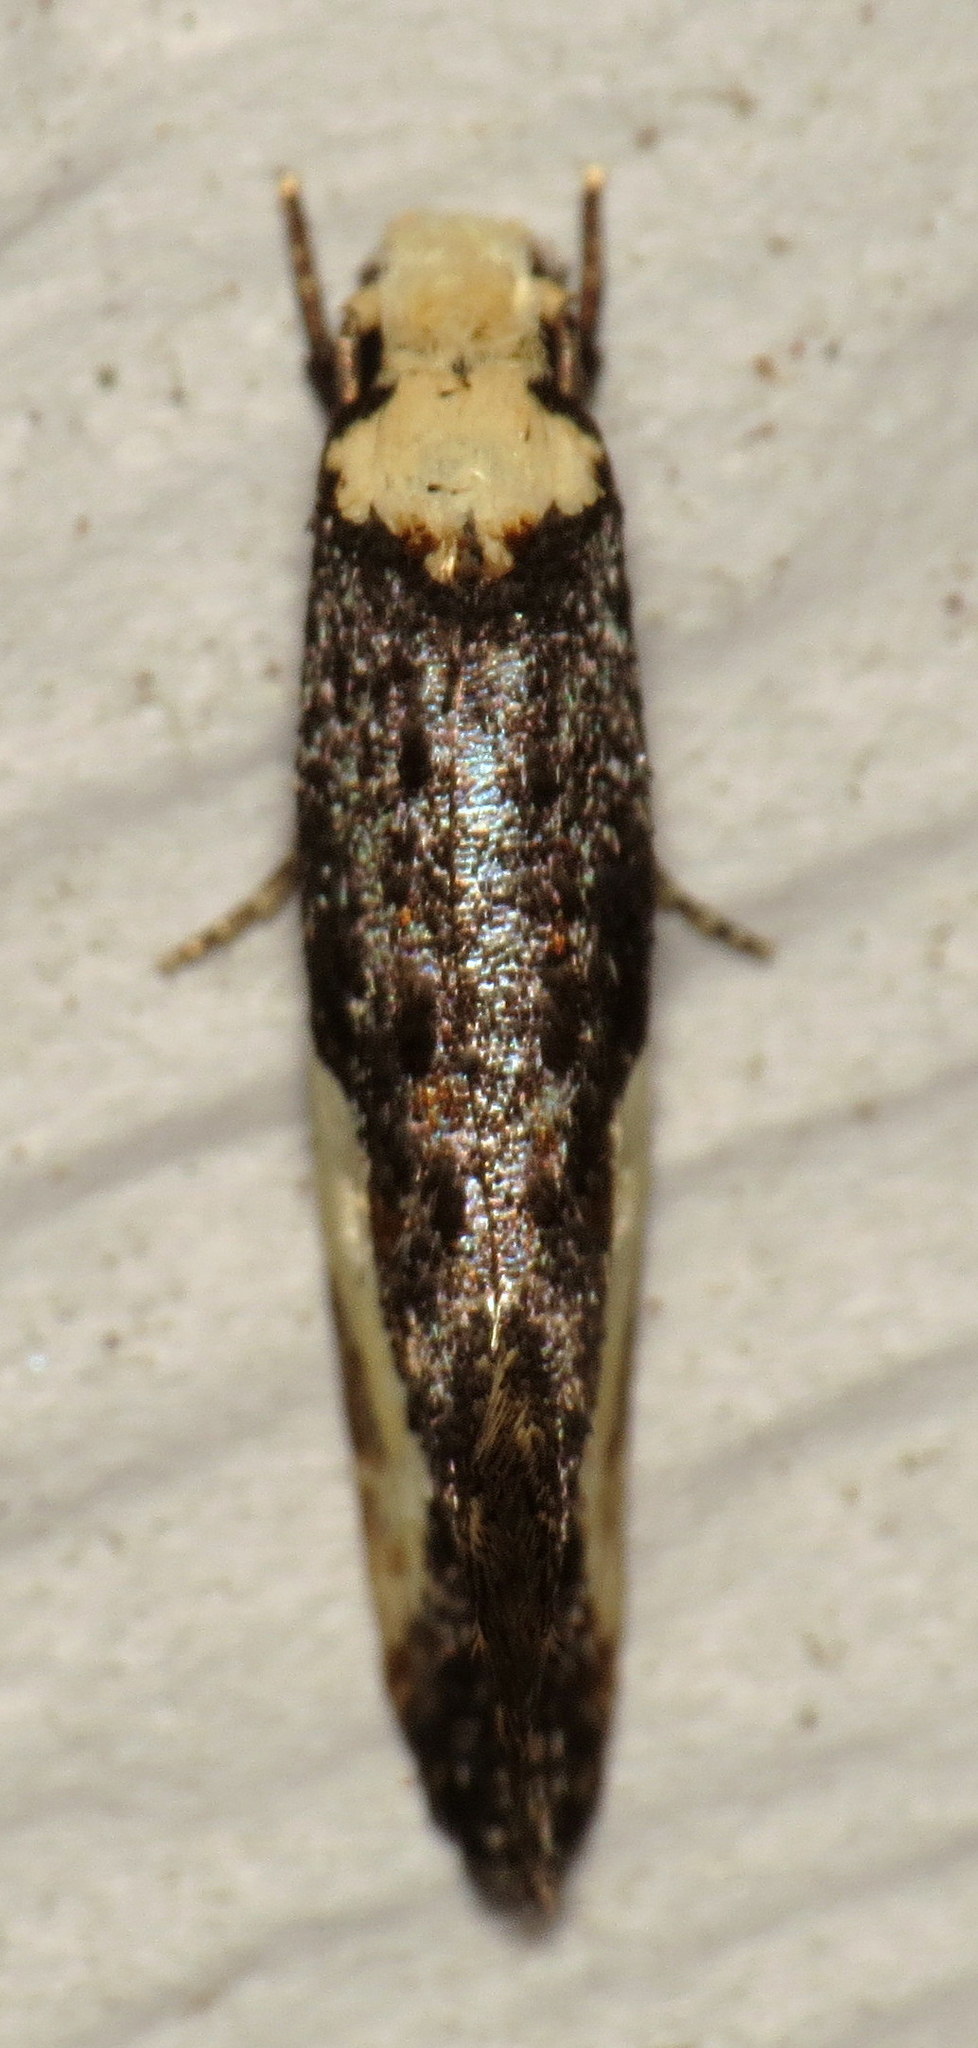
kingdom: Animalia
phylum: Arthropoda
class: Insecta
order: Lepidoptera
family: Tineidae
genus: Monopis
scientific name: Monopis longella
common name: Pavlovski's monopis moth
